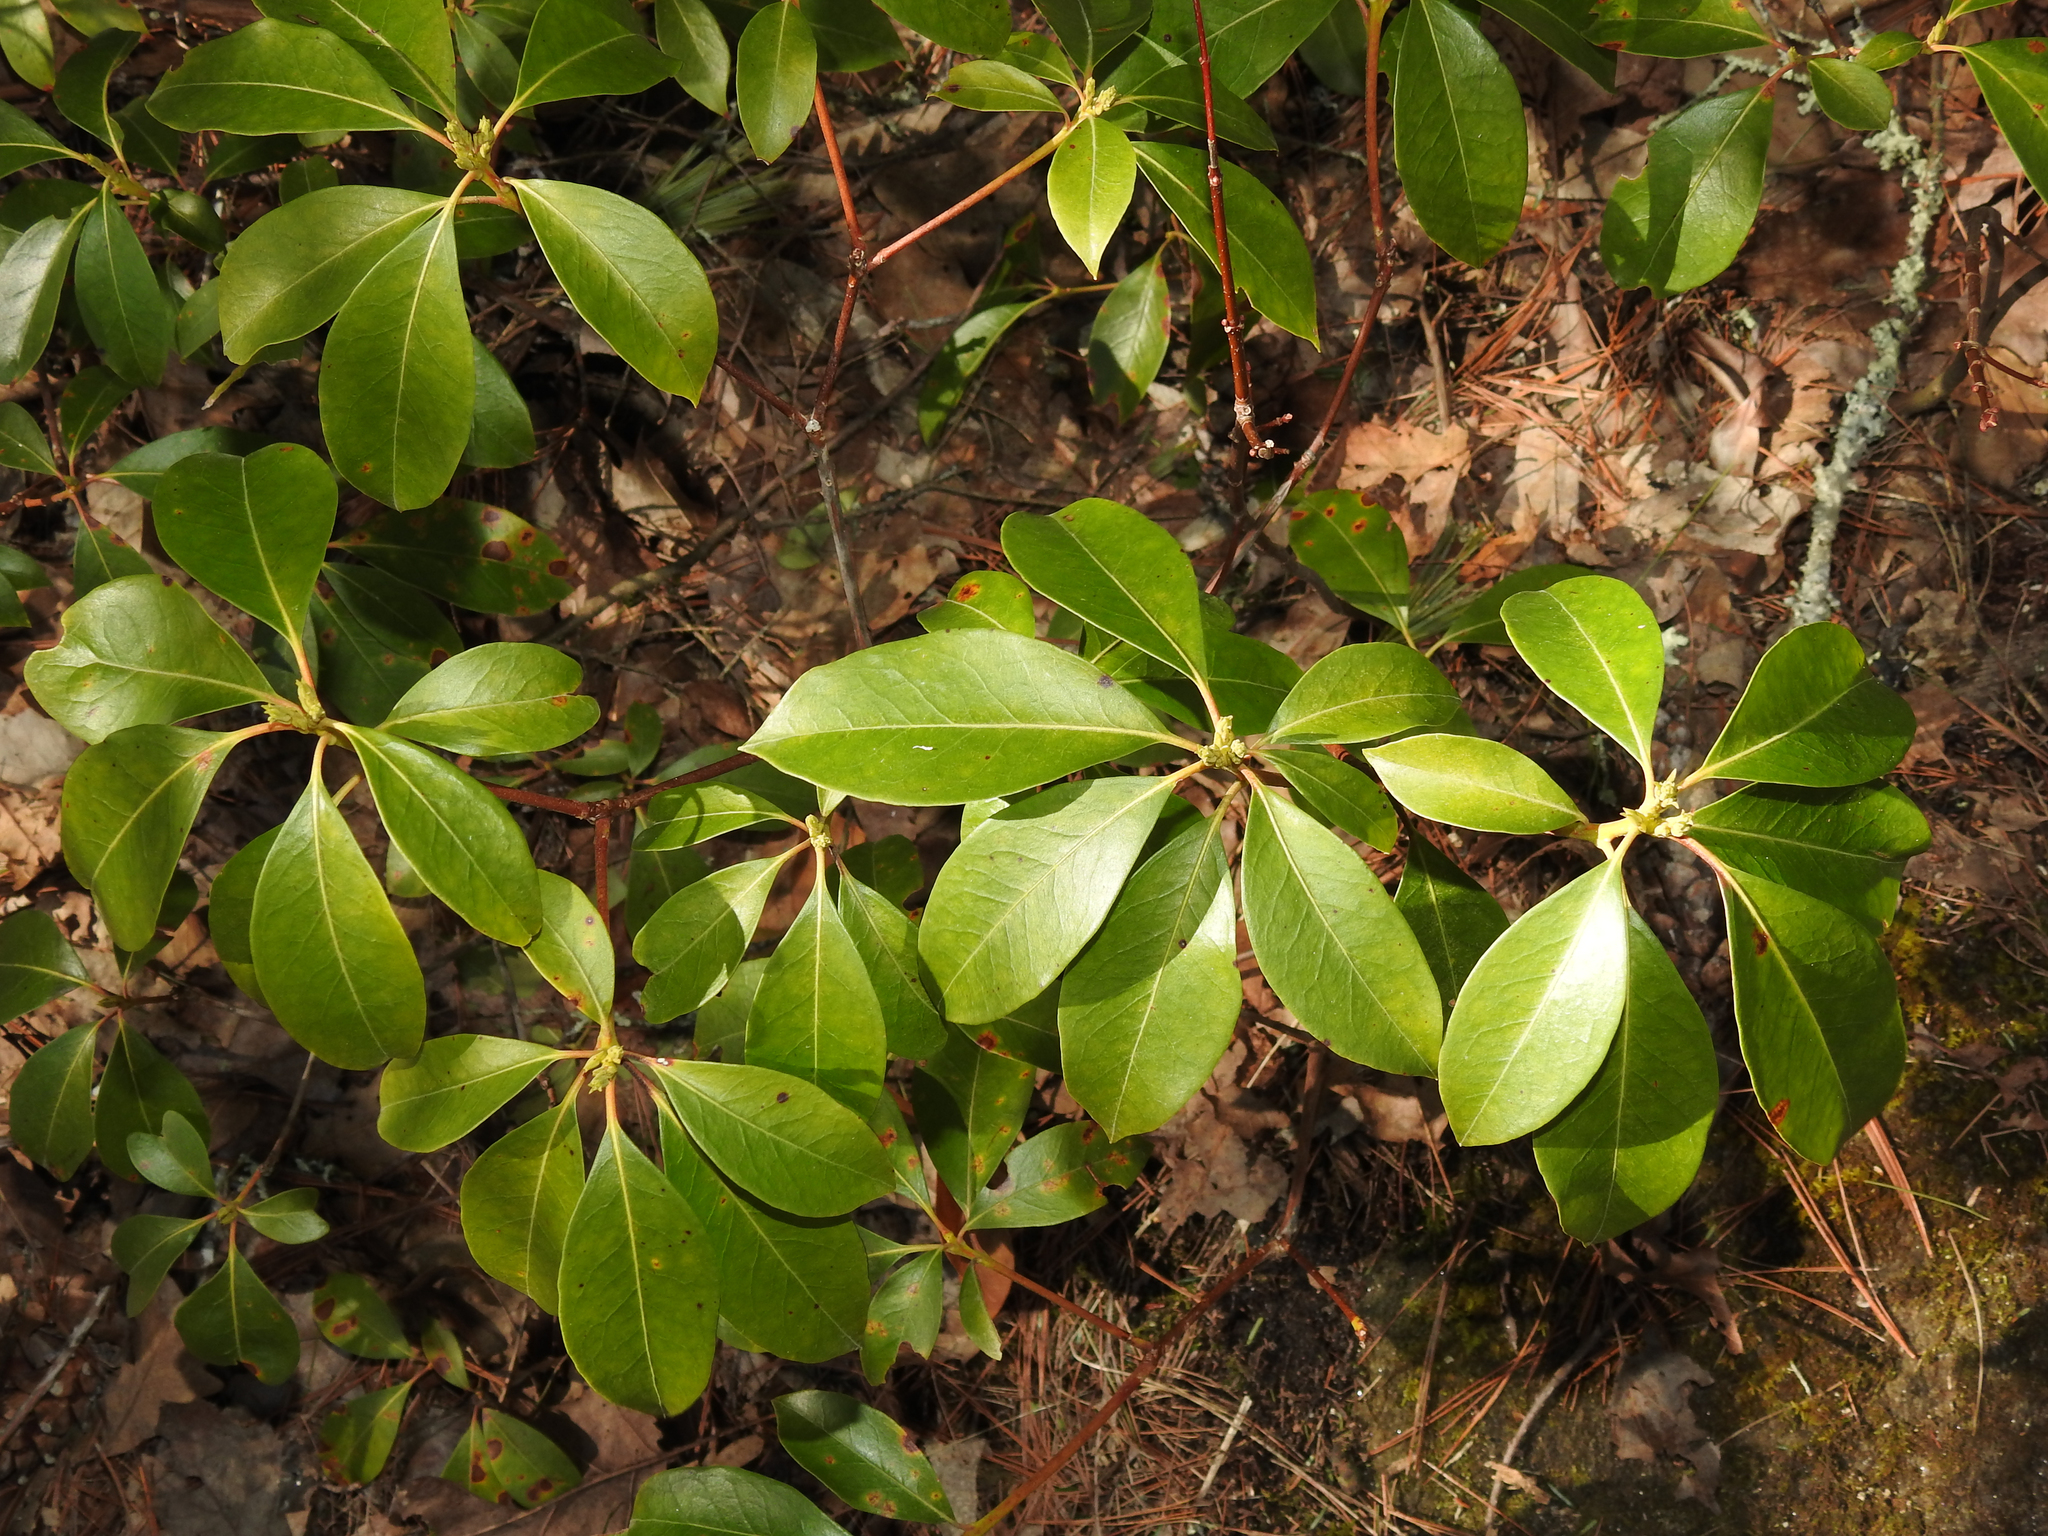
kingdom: Plantae
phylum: Tracheophyta
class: Magnoliopsida
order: Ericales
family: Ericaceae
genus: Kalmia
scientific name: Kalmia latifolia
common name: Mountain-laurel
